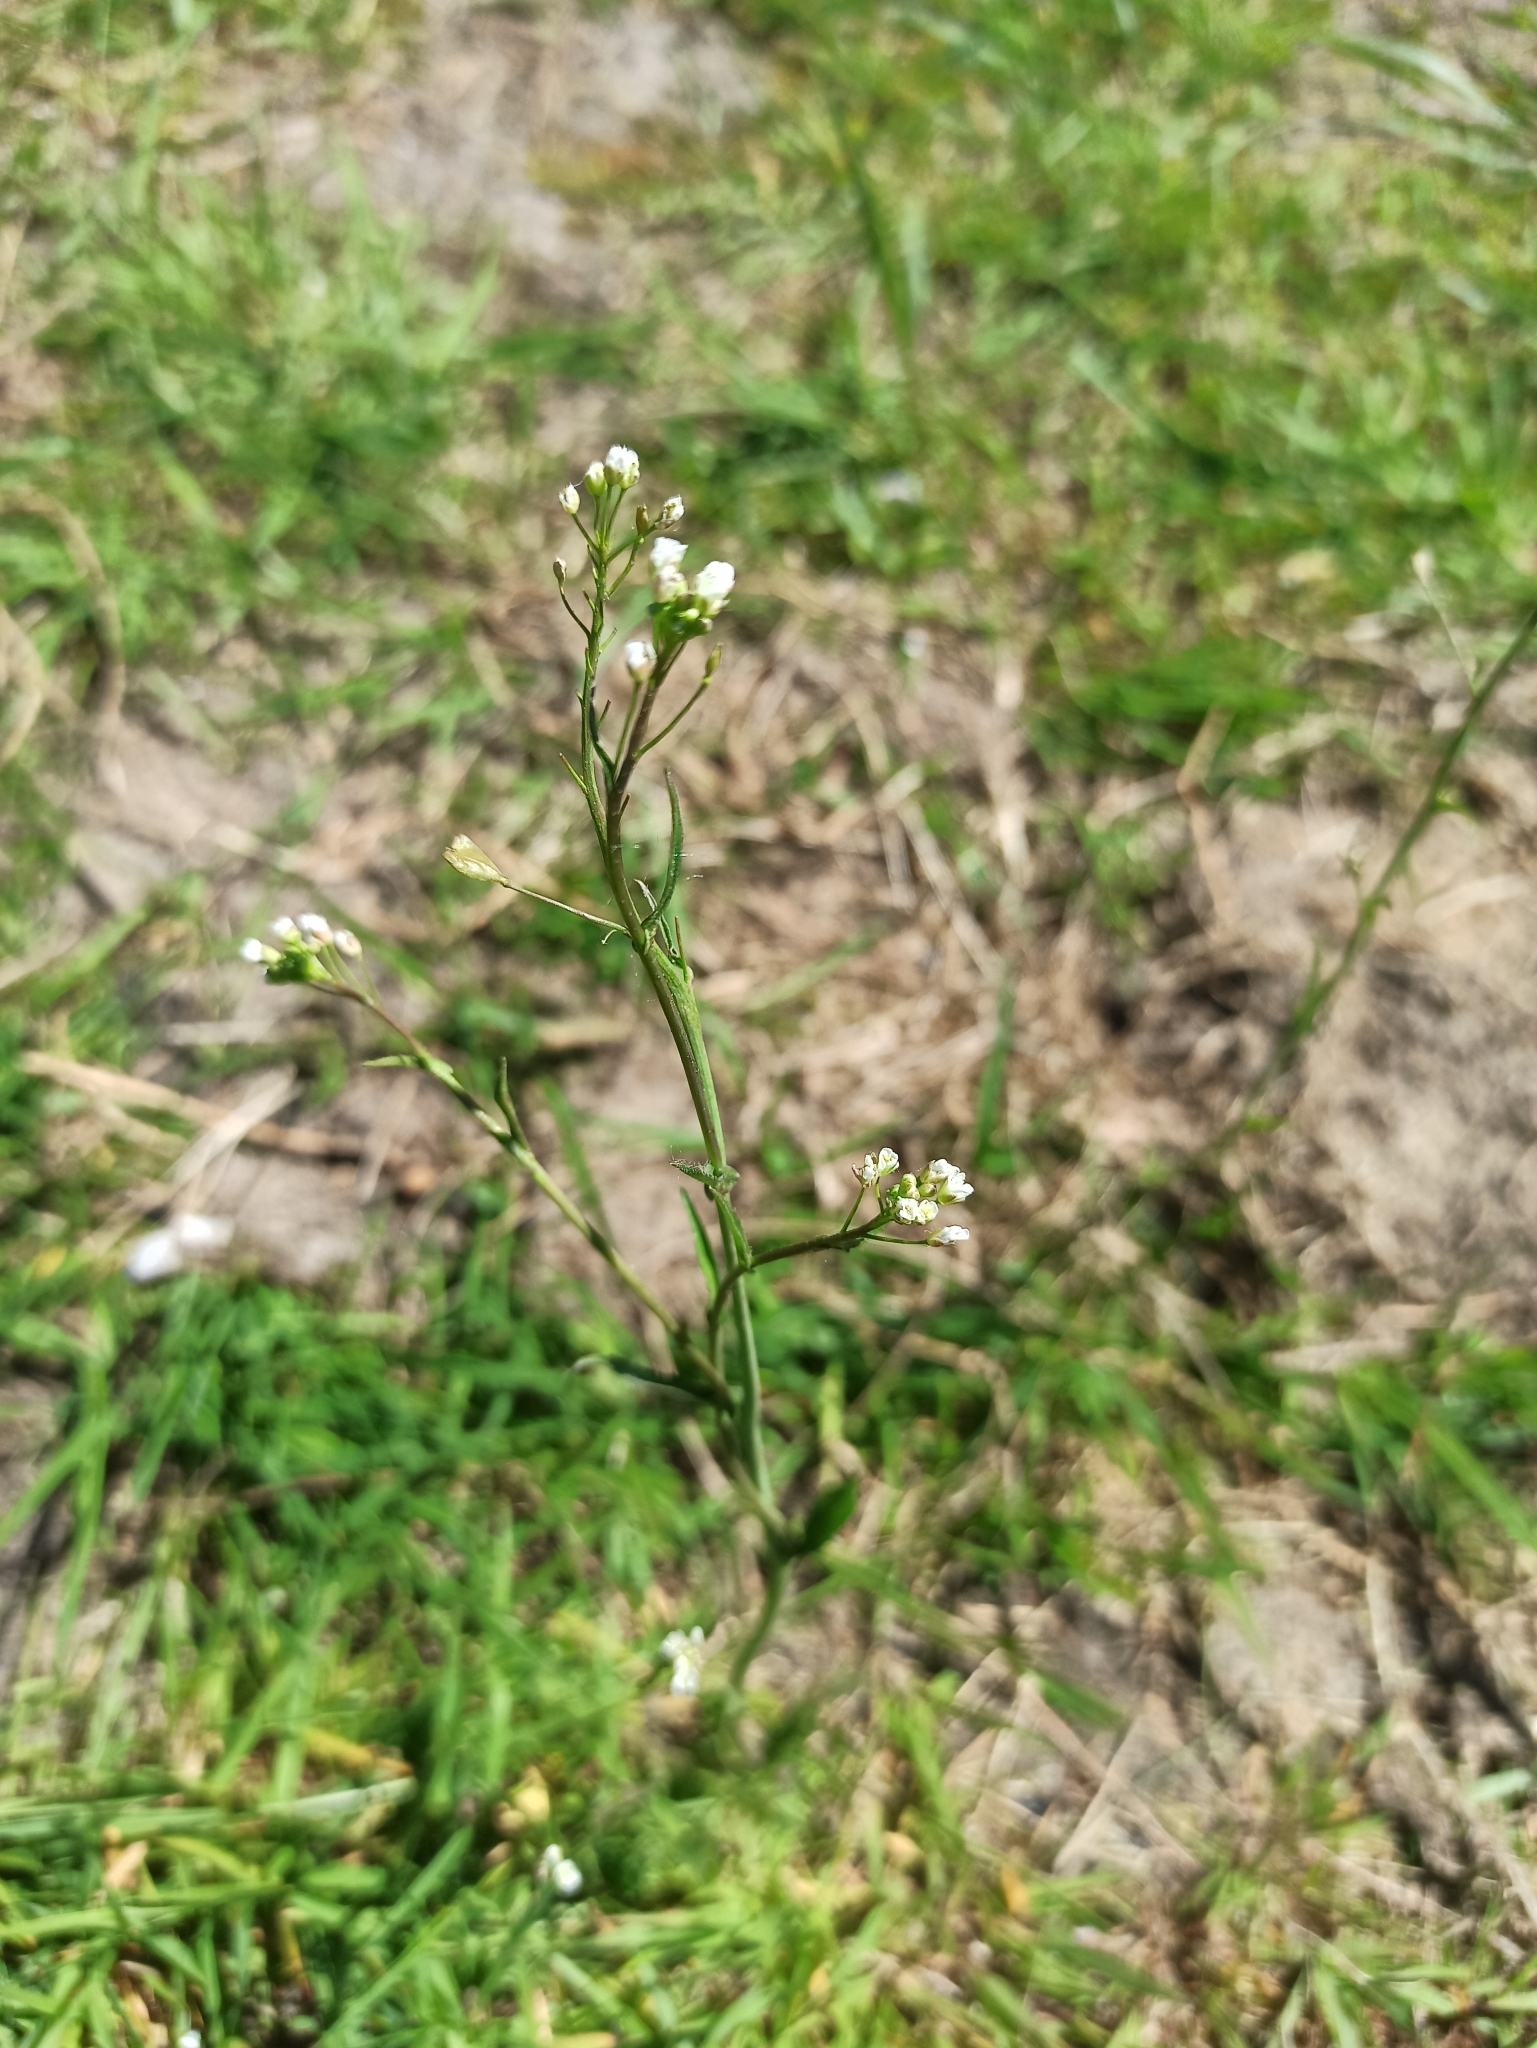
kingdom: Plantae
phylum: Tracheophyta
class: Magnoliopsida
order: Brassicales
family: Brassicaceae
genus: Capsella
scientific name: Capsella bursa-pastoris
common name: Shepherd's purse
